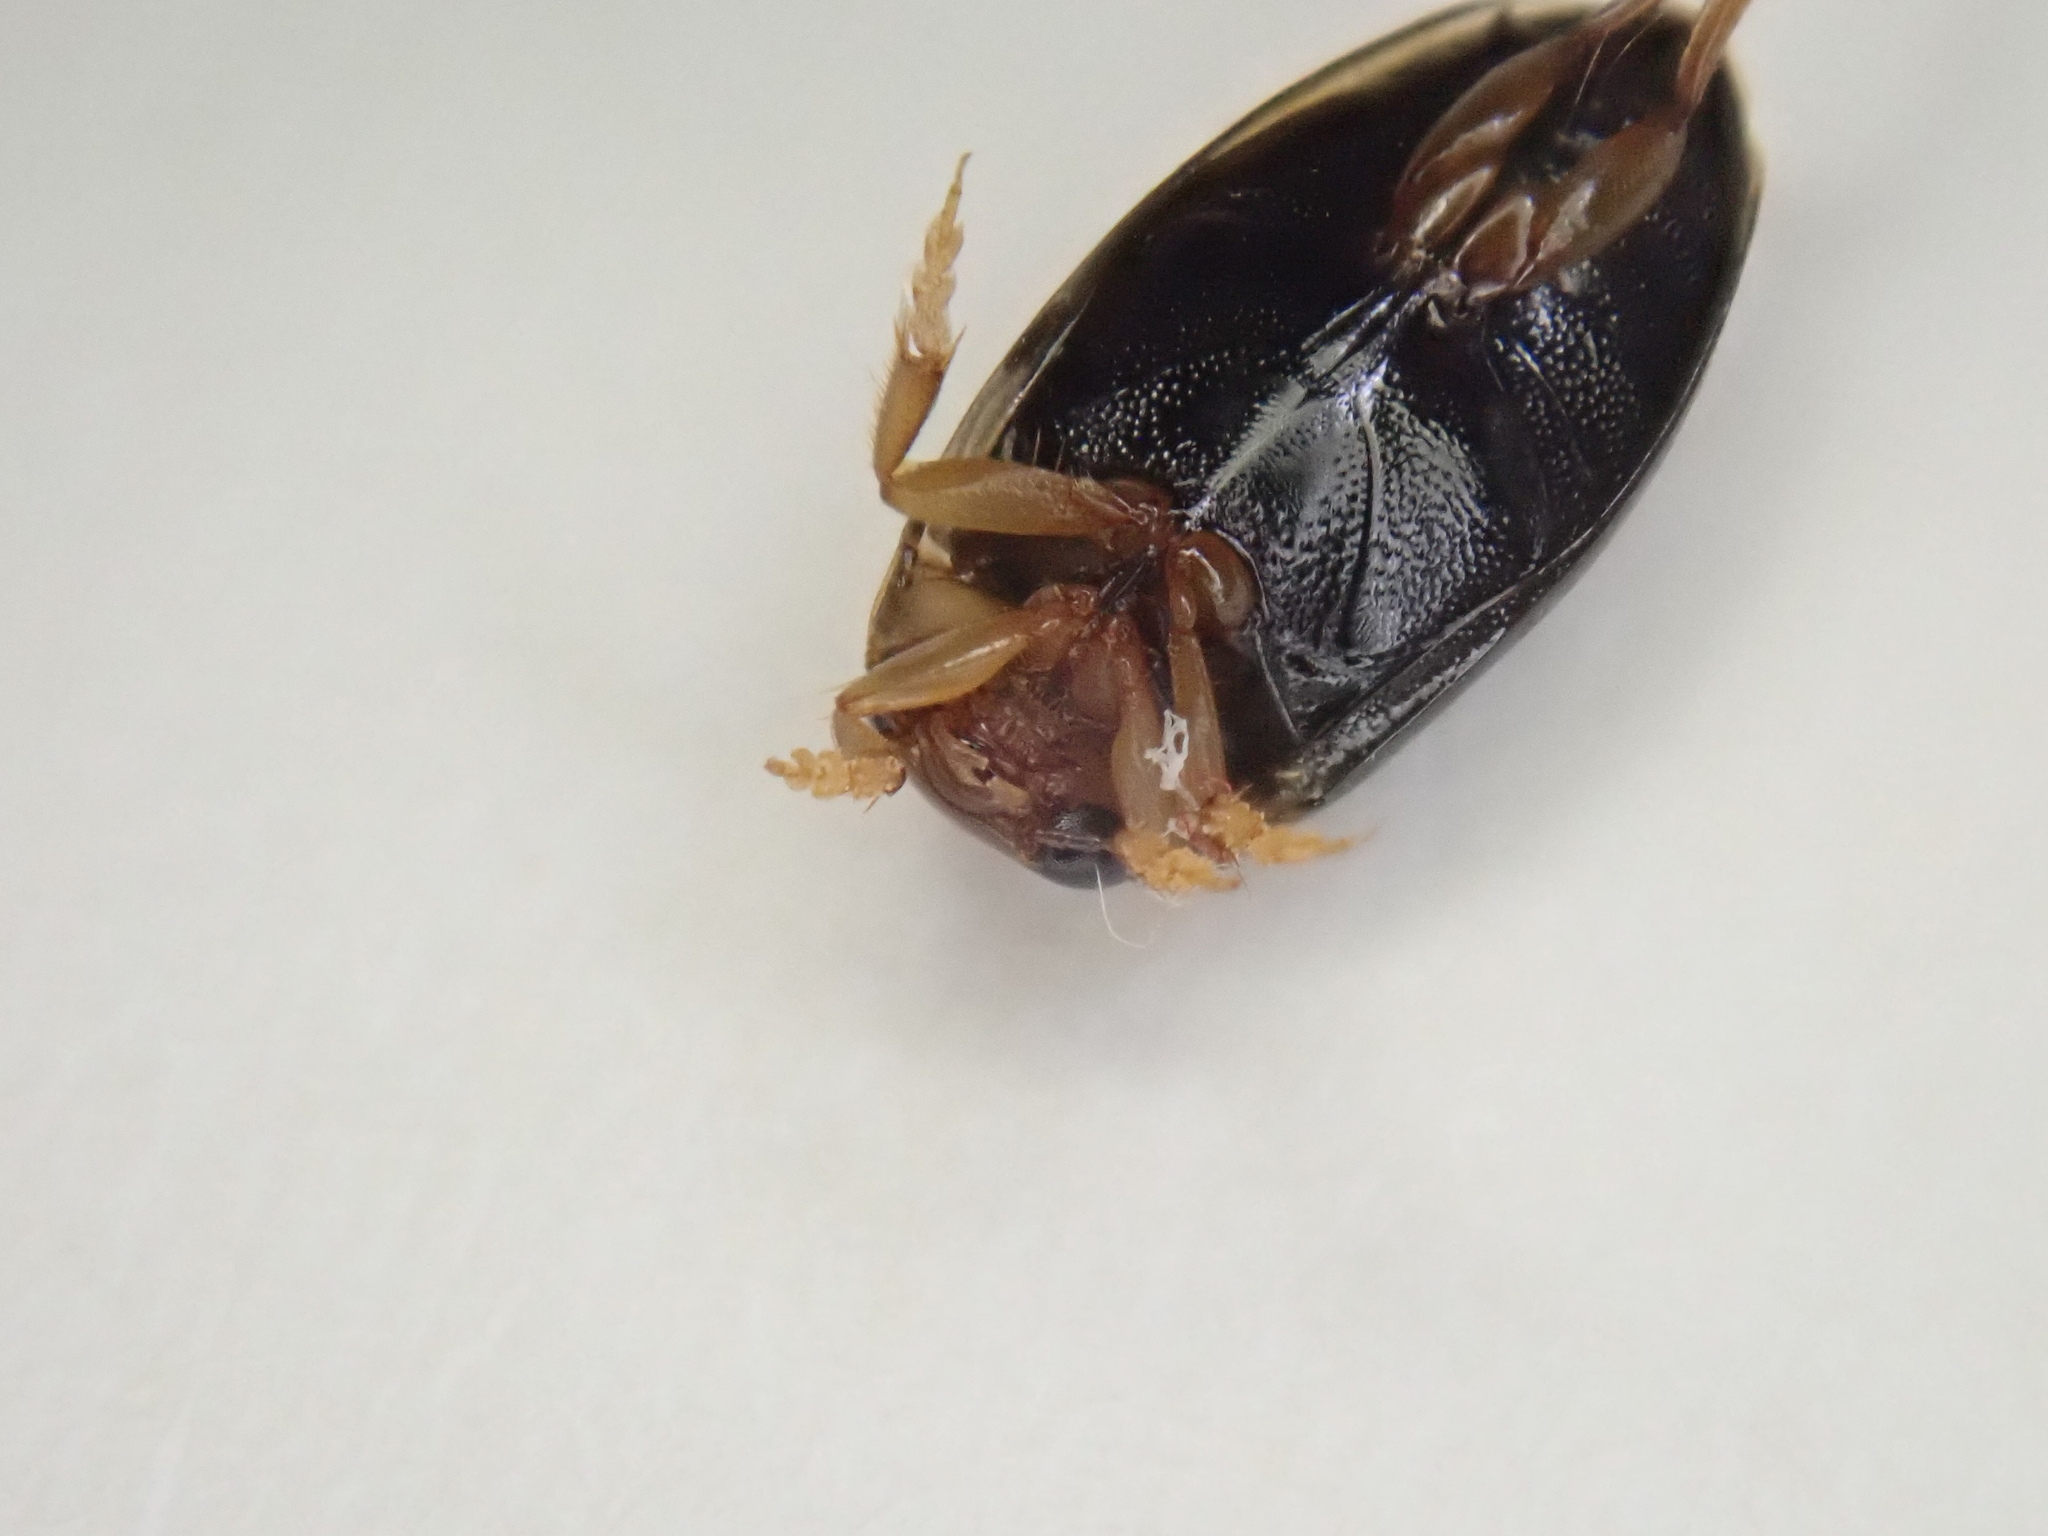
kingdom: Animalia
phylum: Arthropoda
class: Insecta
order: Coleoptera
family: Dytiscidae
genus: Hygrotus
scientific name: Hygrotus nubilus
